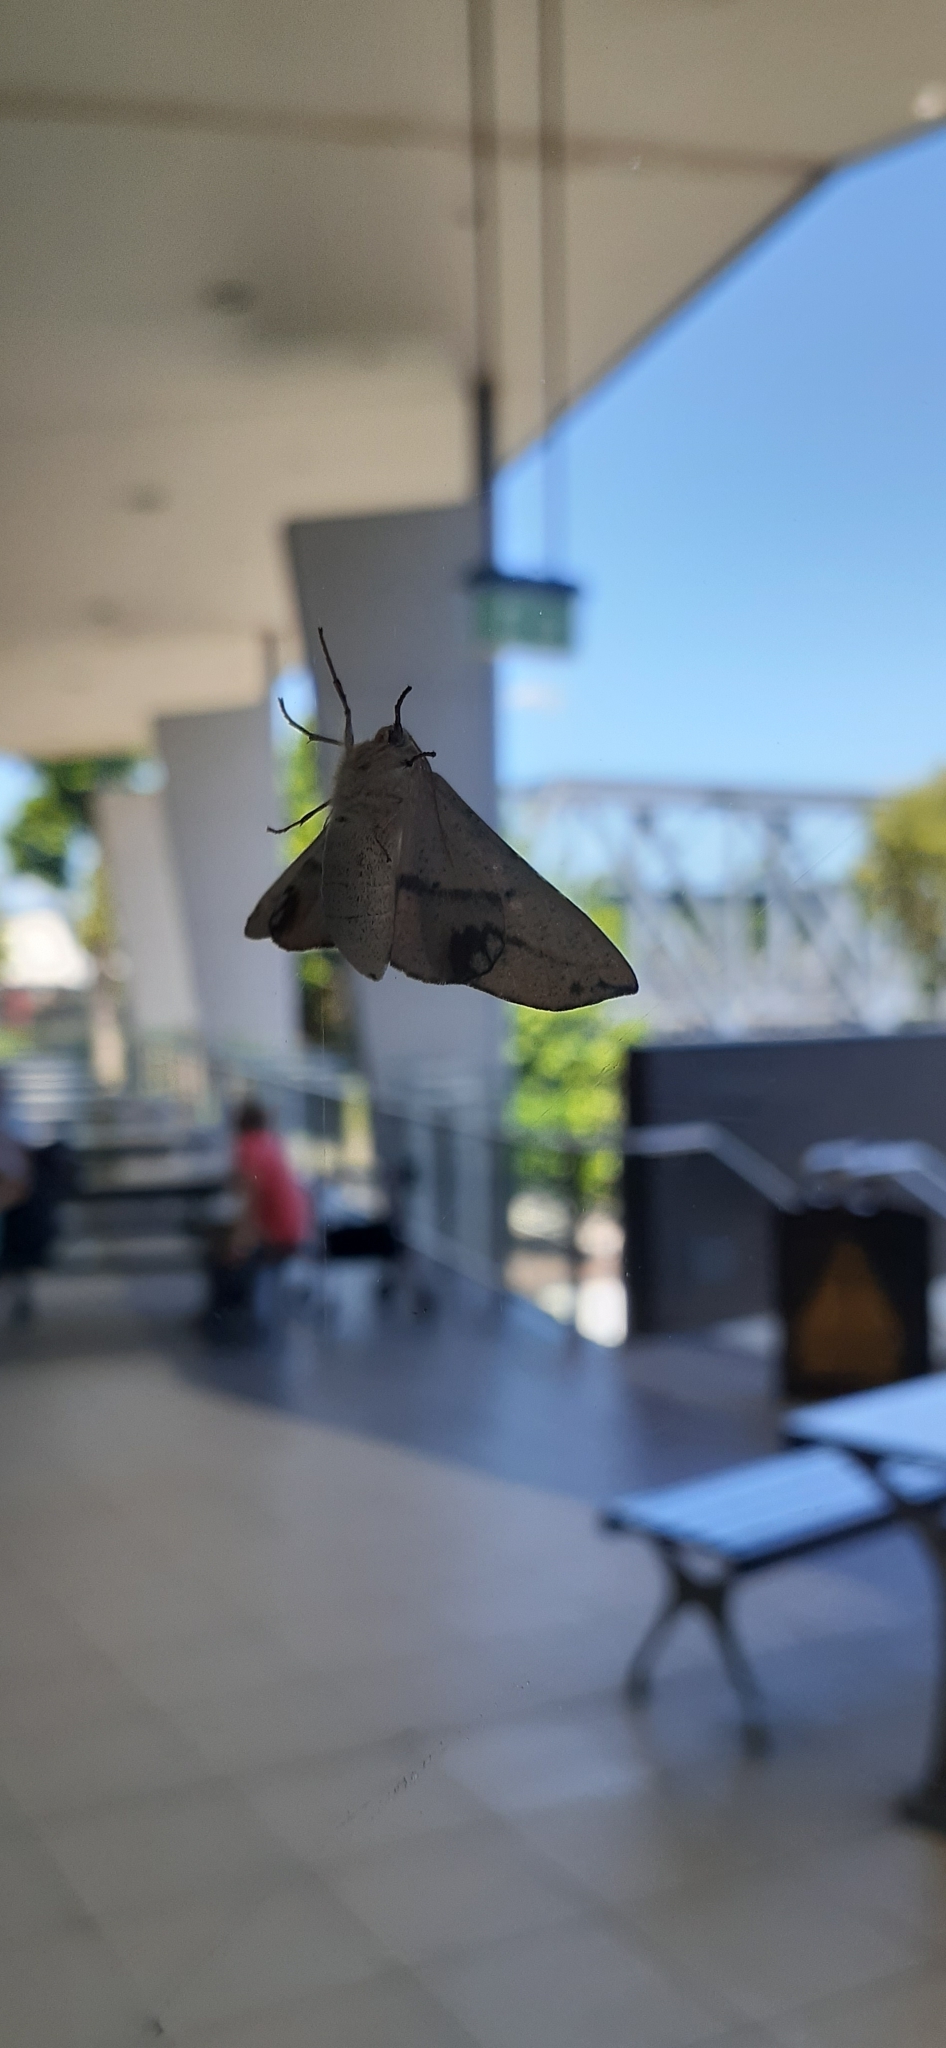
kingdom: Animalia
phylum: Arthropoda
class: Insecta
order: Lepidoptera
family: Geometridae
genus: Antictenia
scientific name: Antictenia punctunculus
